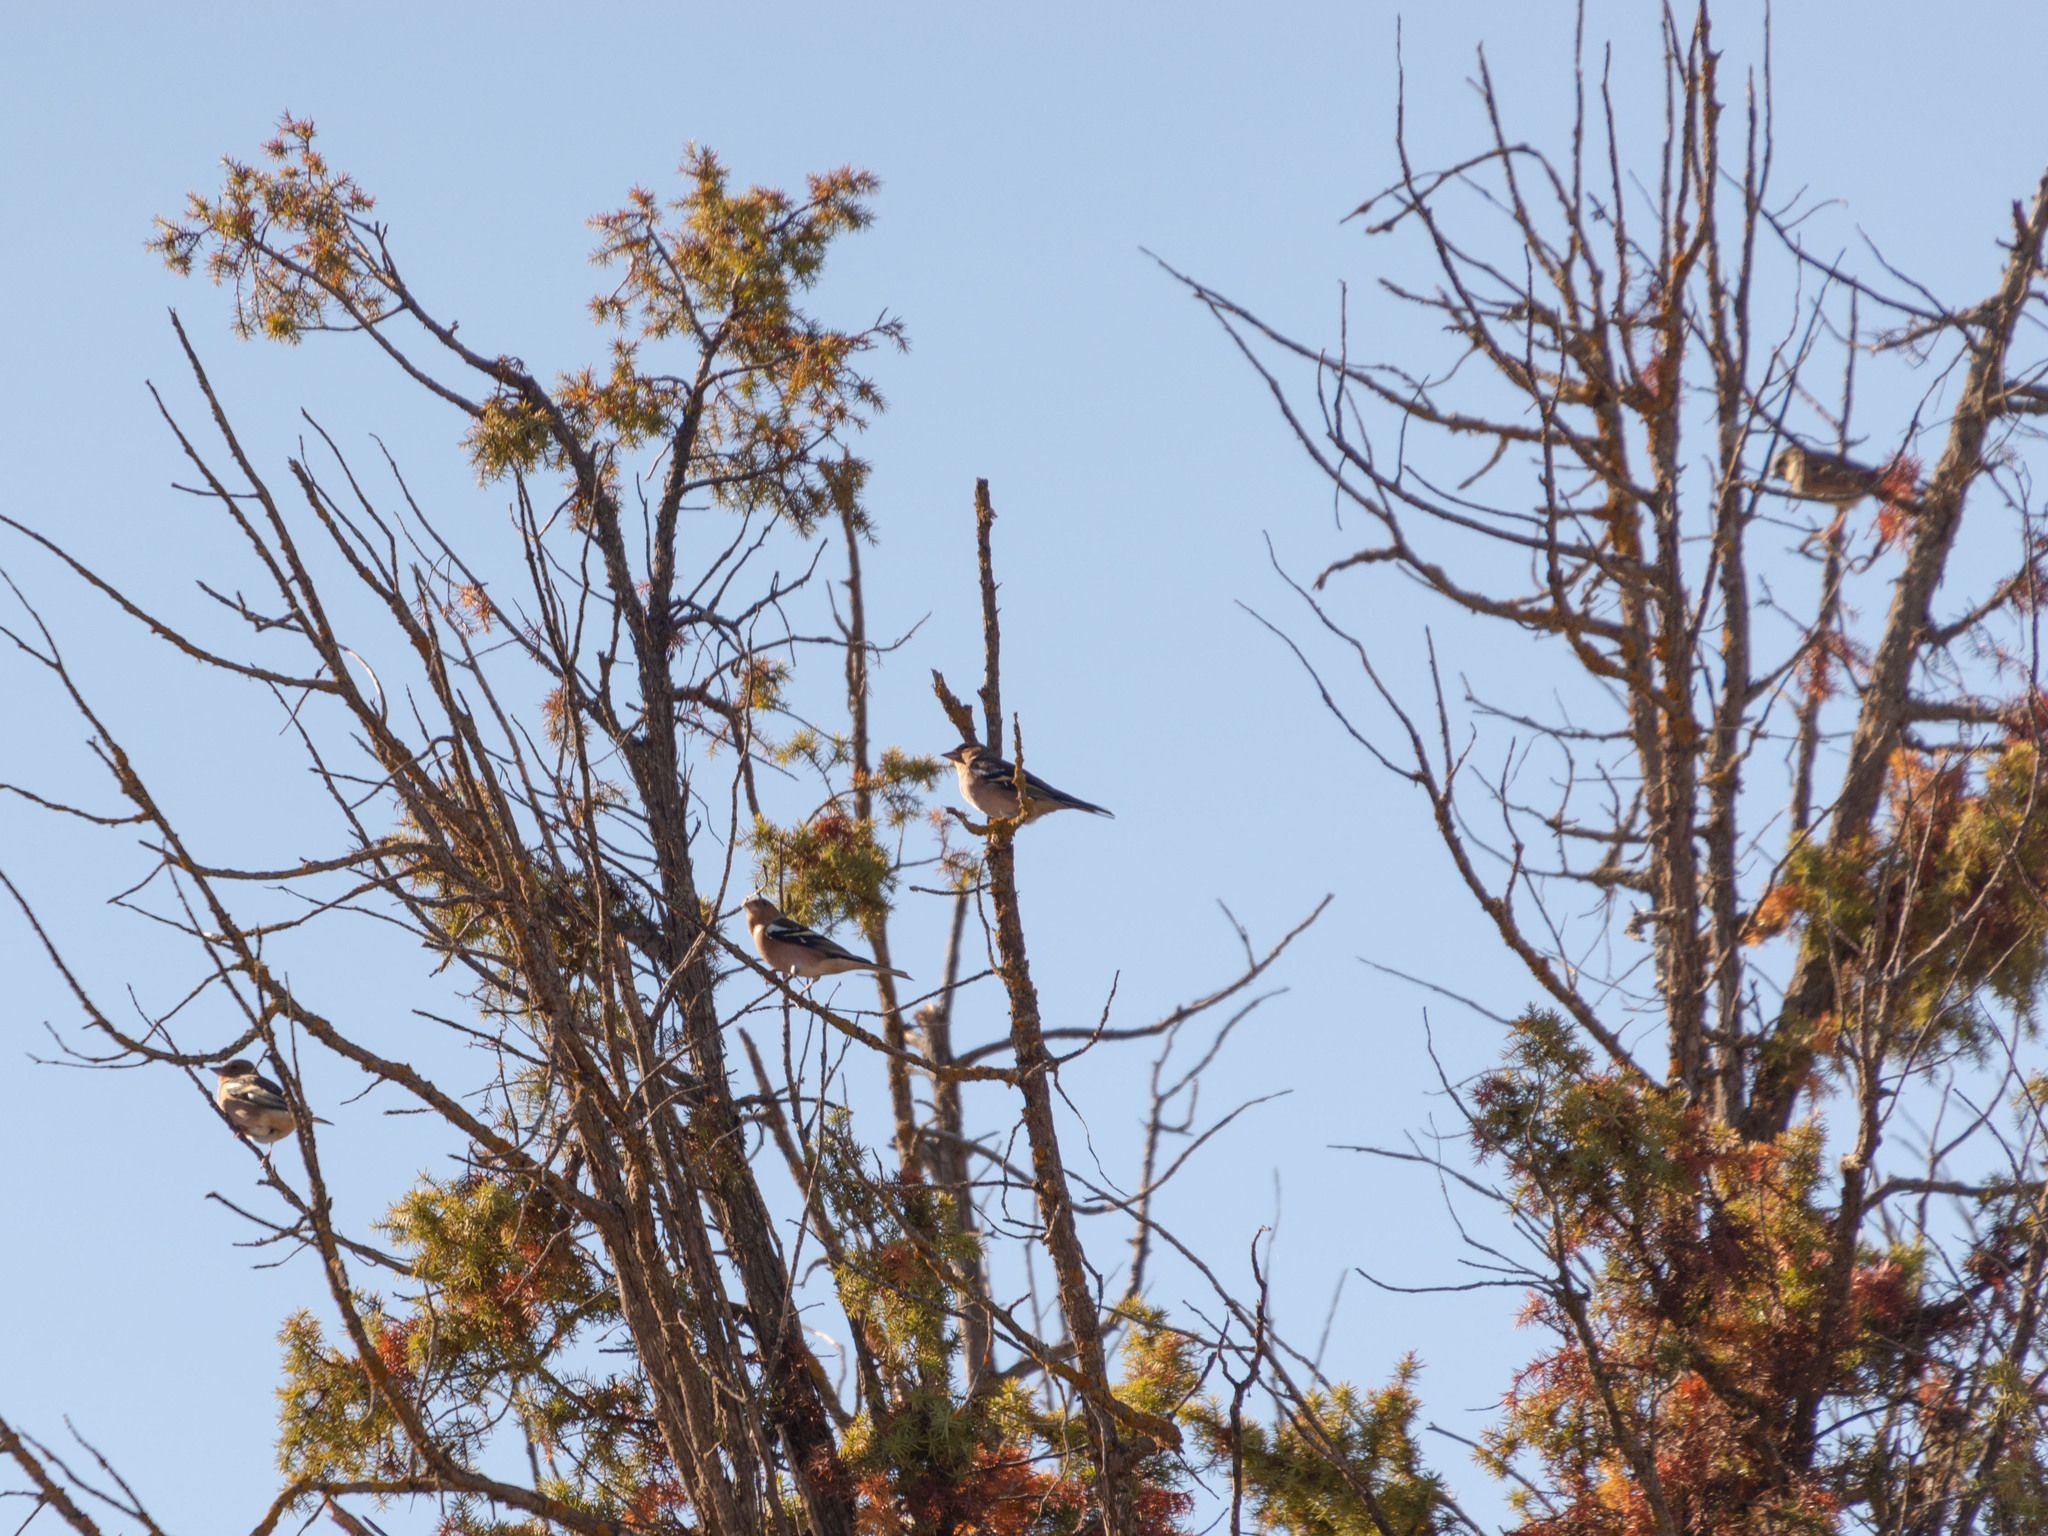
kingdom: Animalia
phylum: Chordata
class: Aves
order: Passeriformes
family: Fringillidae
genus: Fringilla
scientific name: Fringilla coelebs
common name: Common chaffinch
